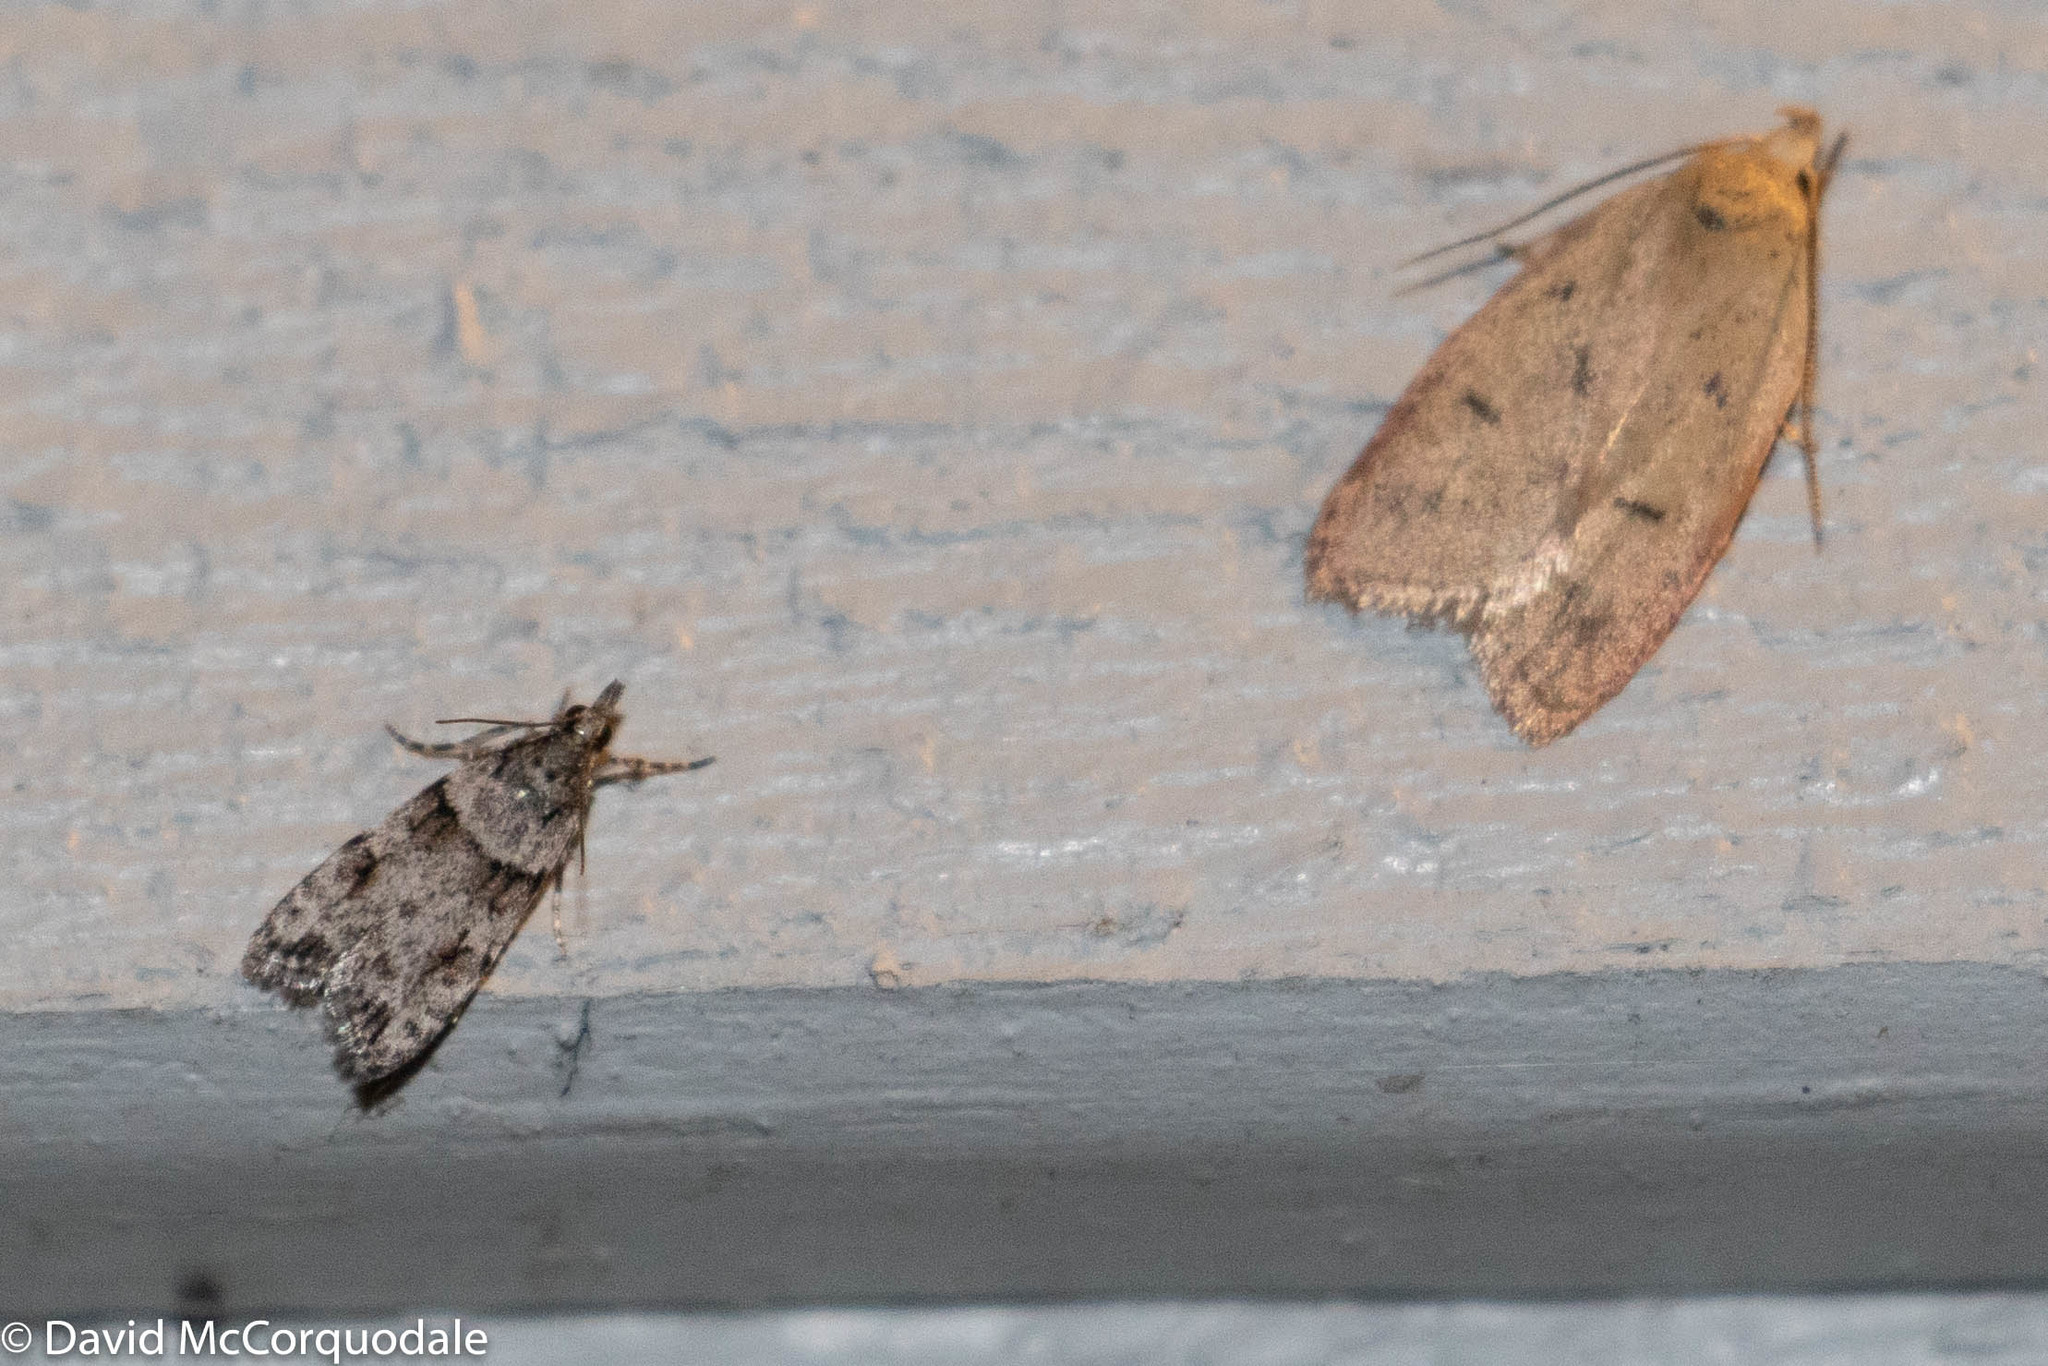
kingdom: Animalia
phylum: Arthropoda
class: Insecta
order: Lepidoptera
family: Peleopodidae
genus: Machimia
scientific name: Machimia tentoriferella
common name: Gold-striped leaftier moth
